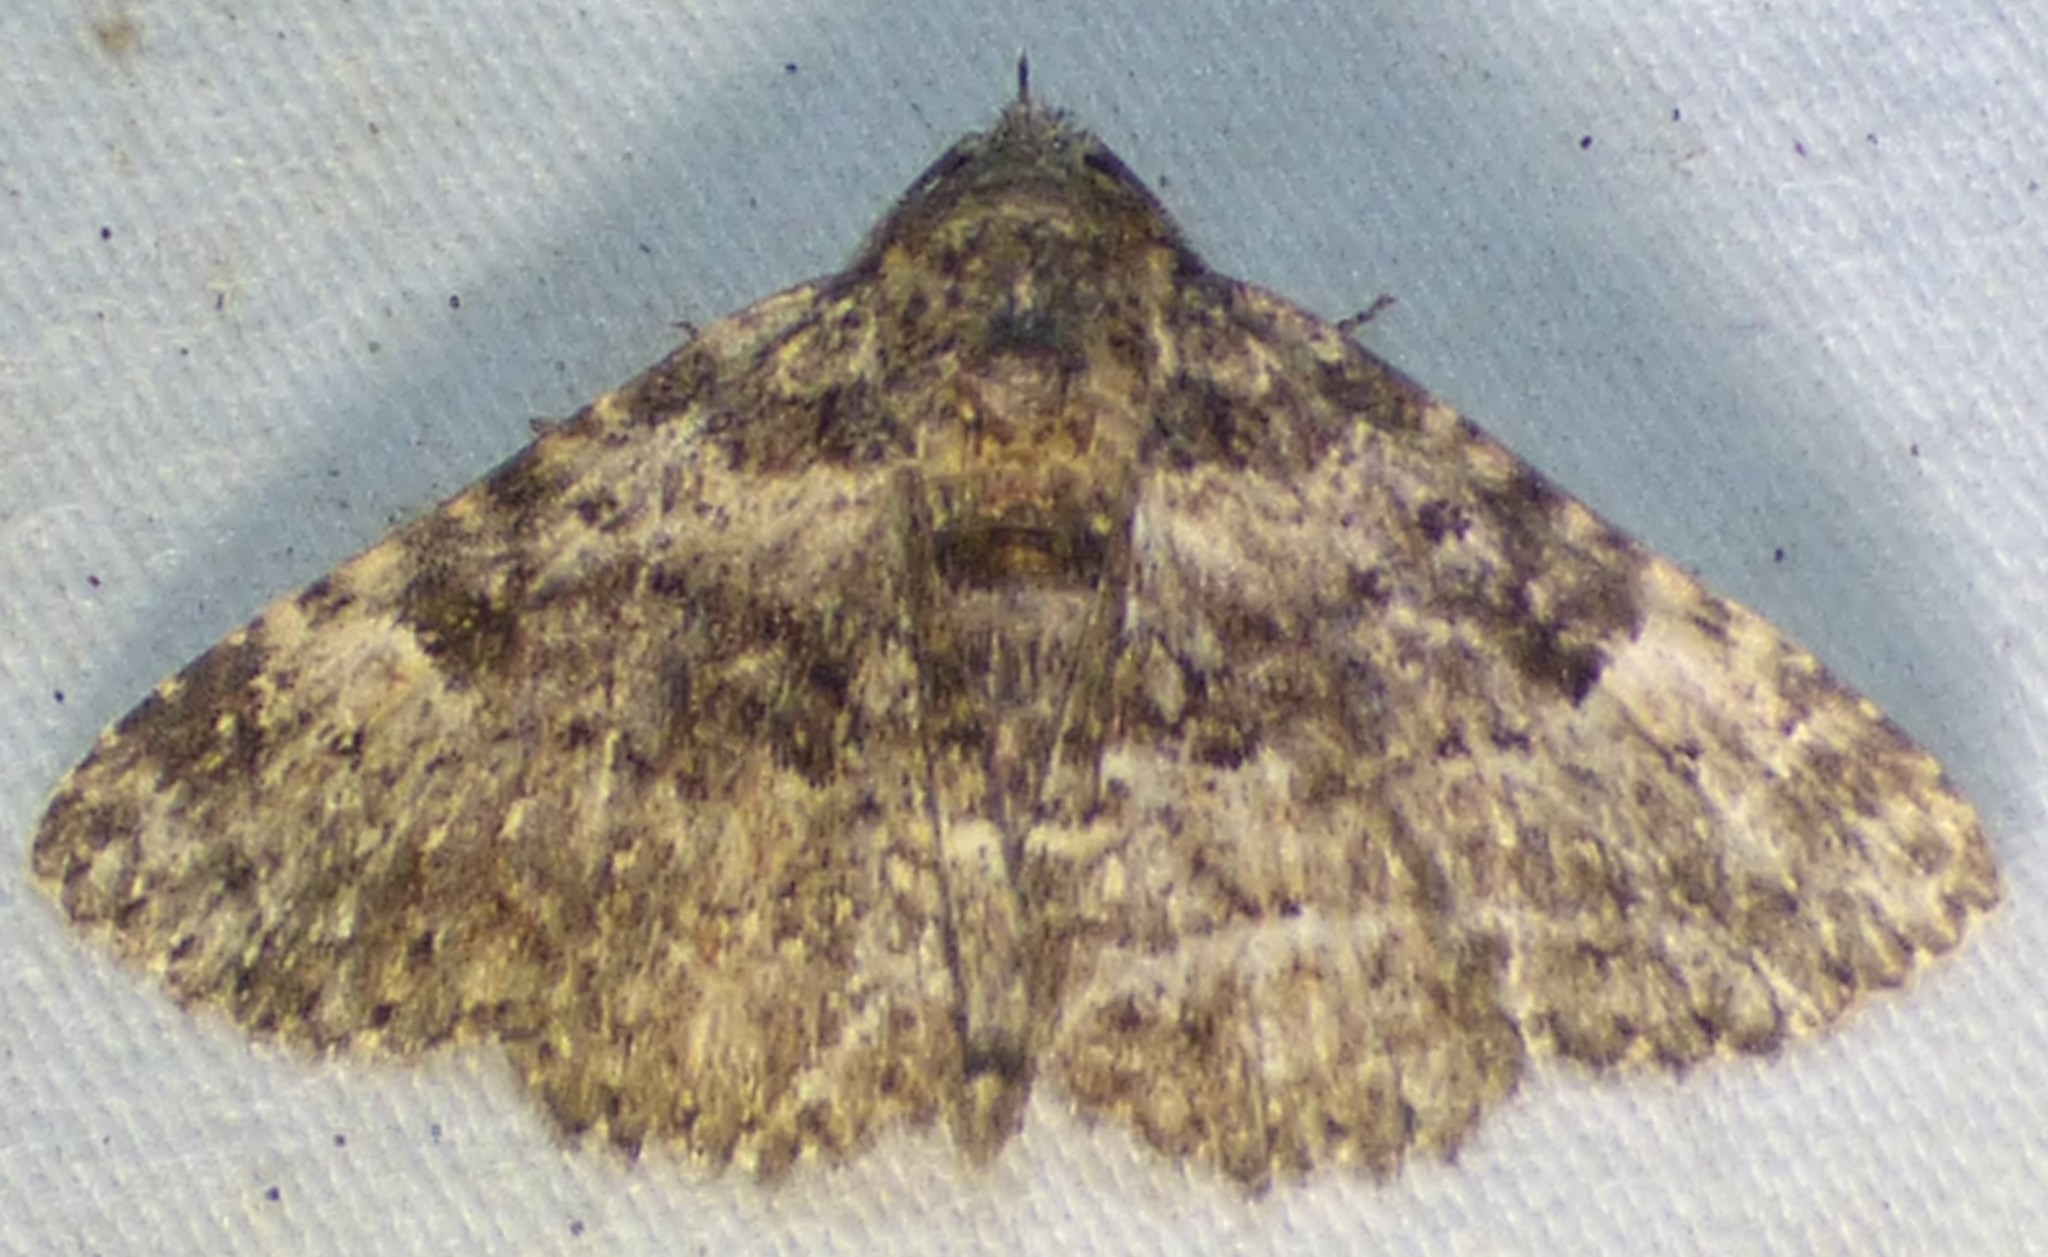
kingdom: Animalia
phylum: Arthropoda
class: Insecta
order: Lepidoptera
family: Erebidae
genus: Metalectra
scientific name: Metalectra discalis
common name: Common fungus moth
